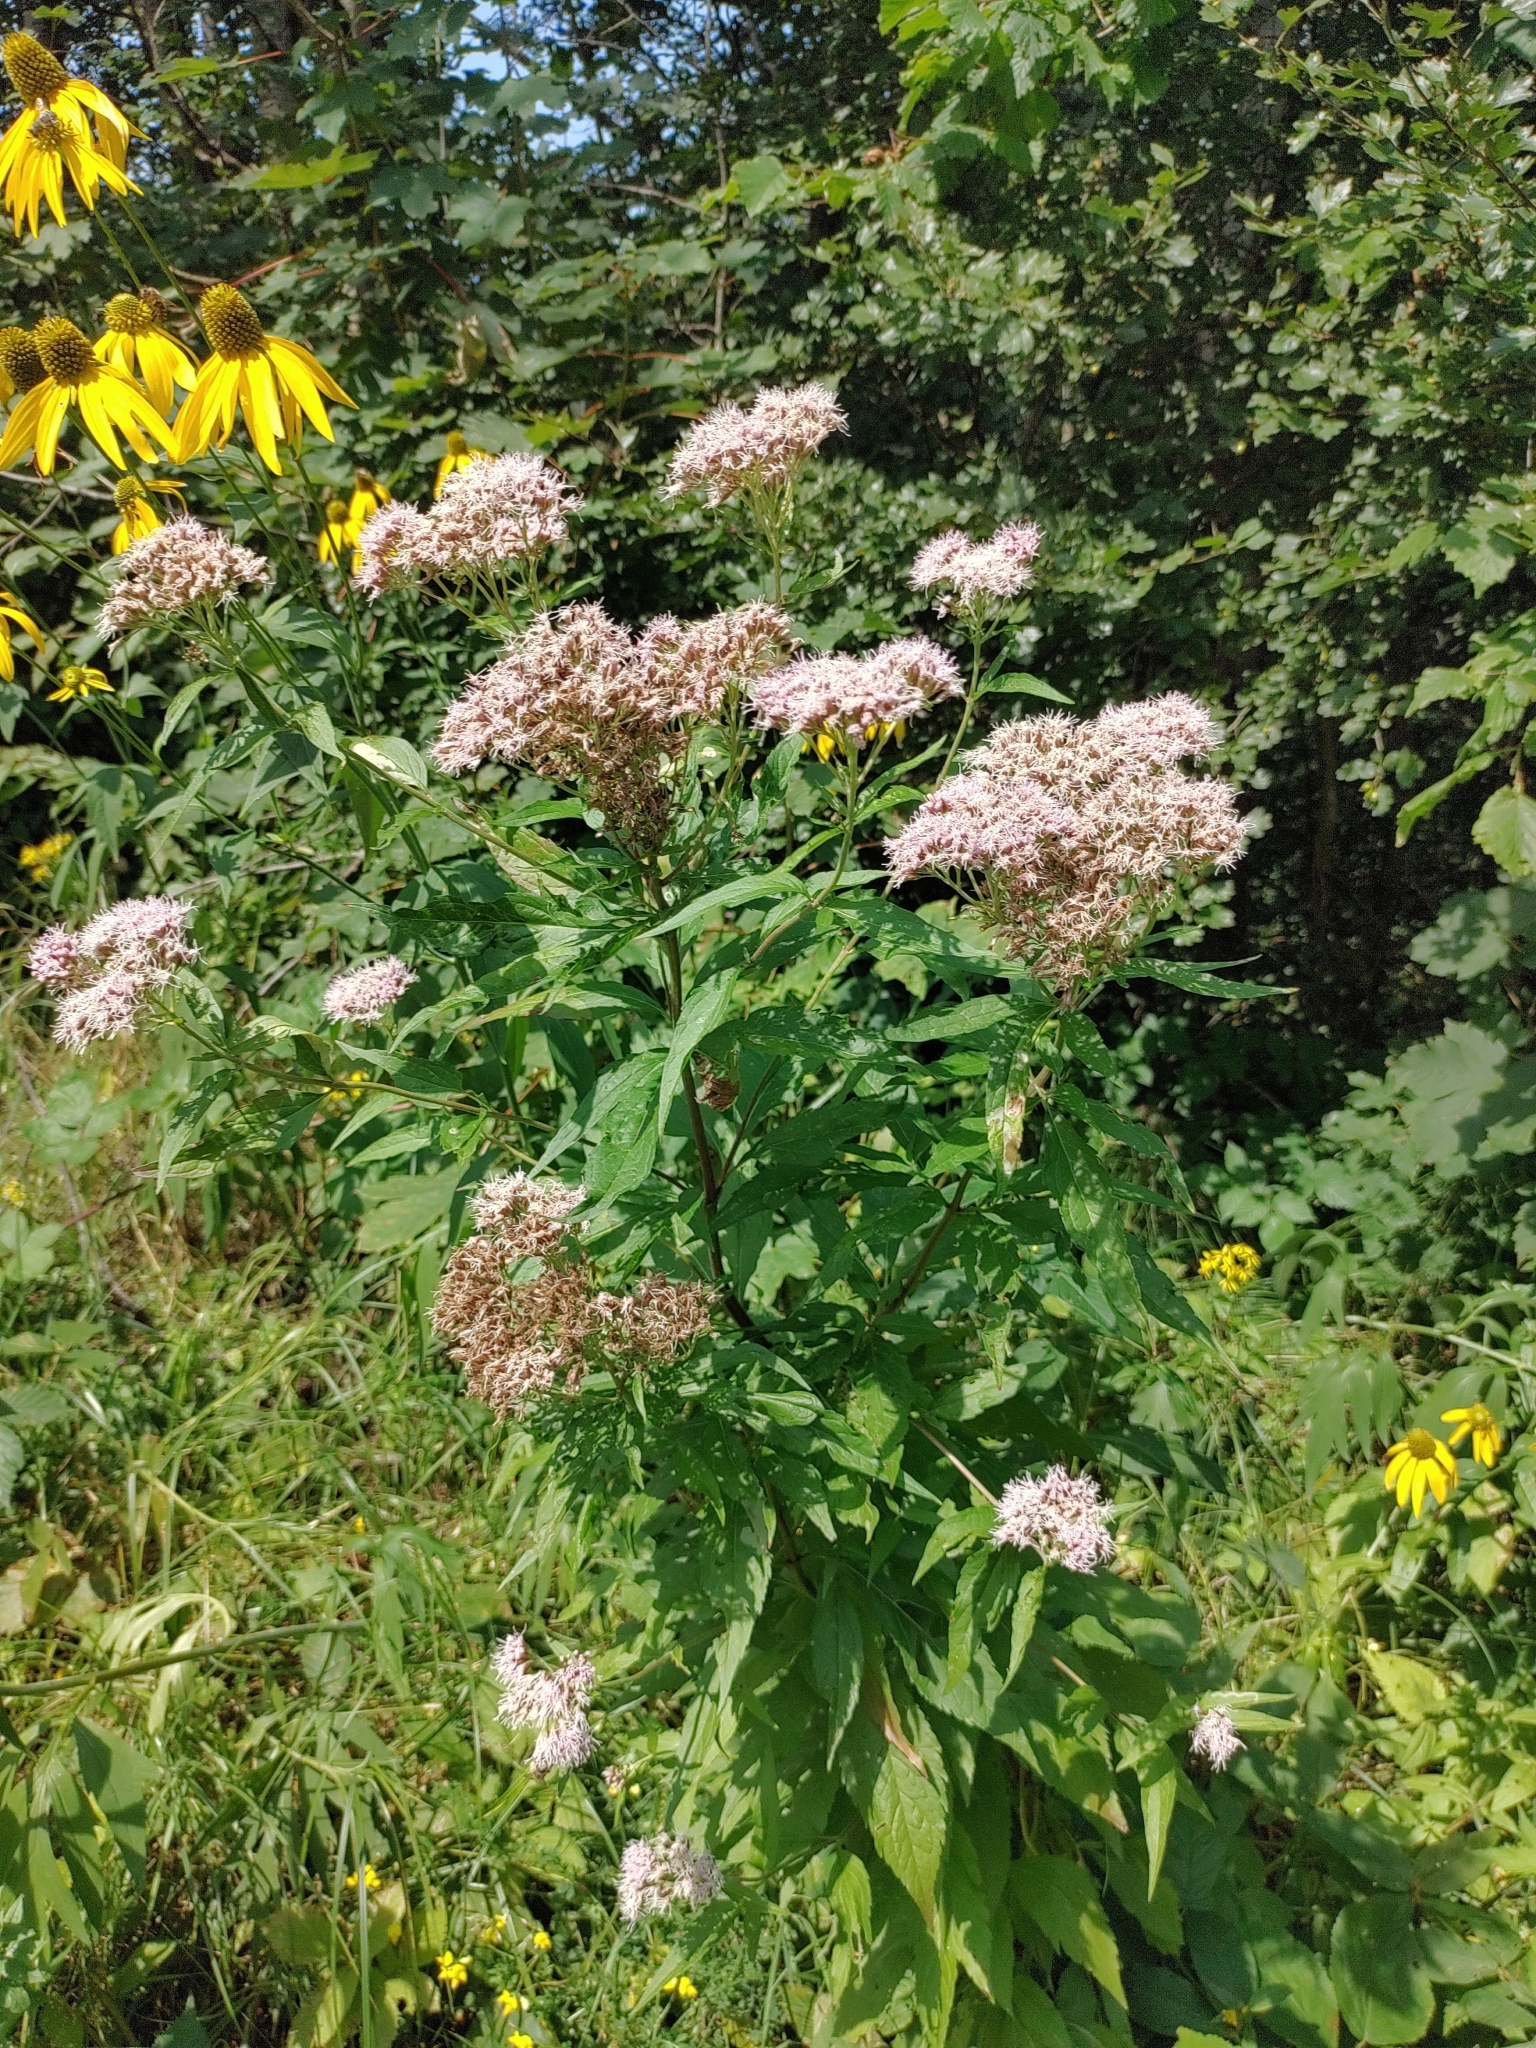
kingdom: Plantae
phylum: Tracheophyta
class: Magnoliopsida
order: Asterales
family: Asteraceae
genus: Eupatorium
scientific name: Eupatorium cannabinum
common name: Hemp-agrimony
